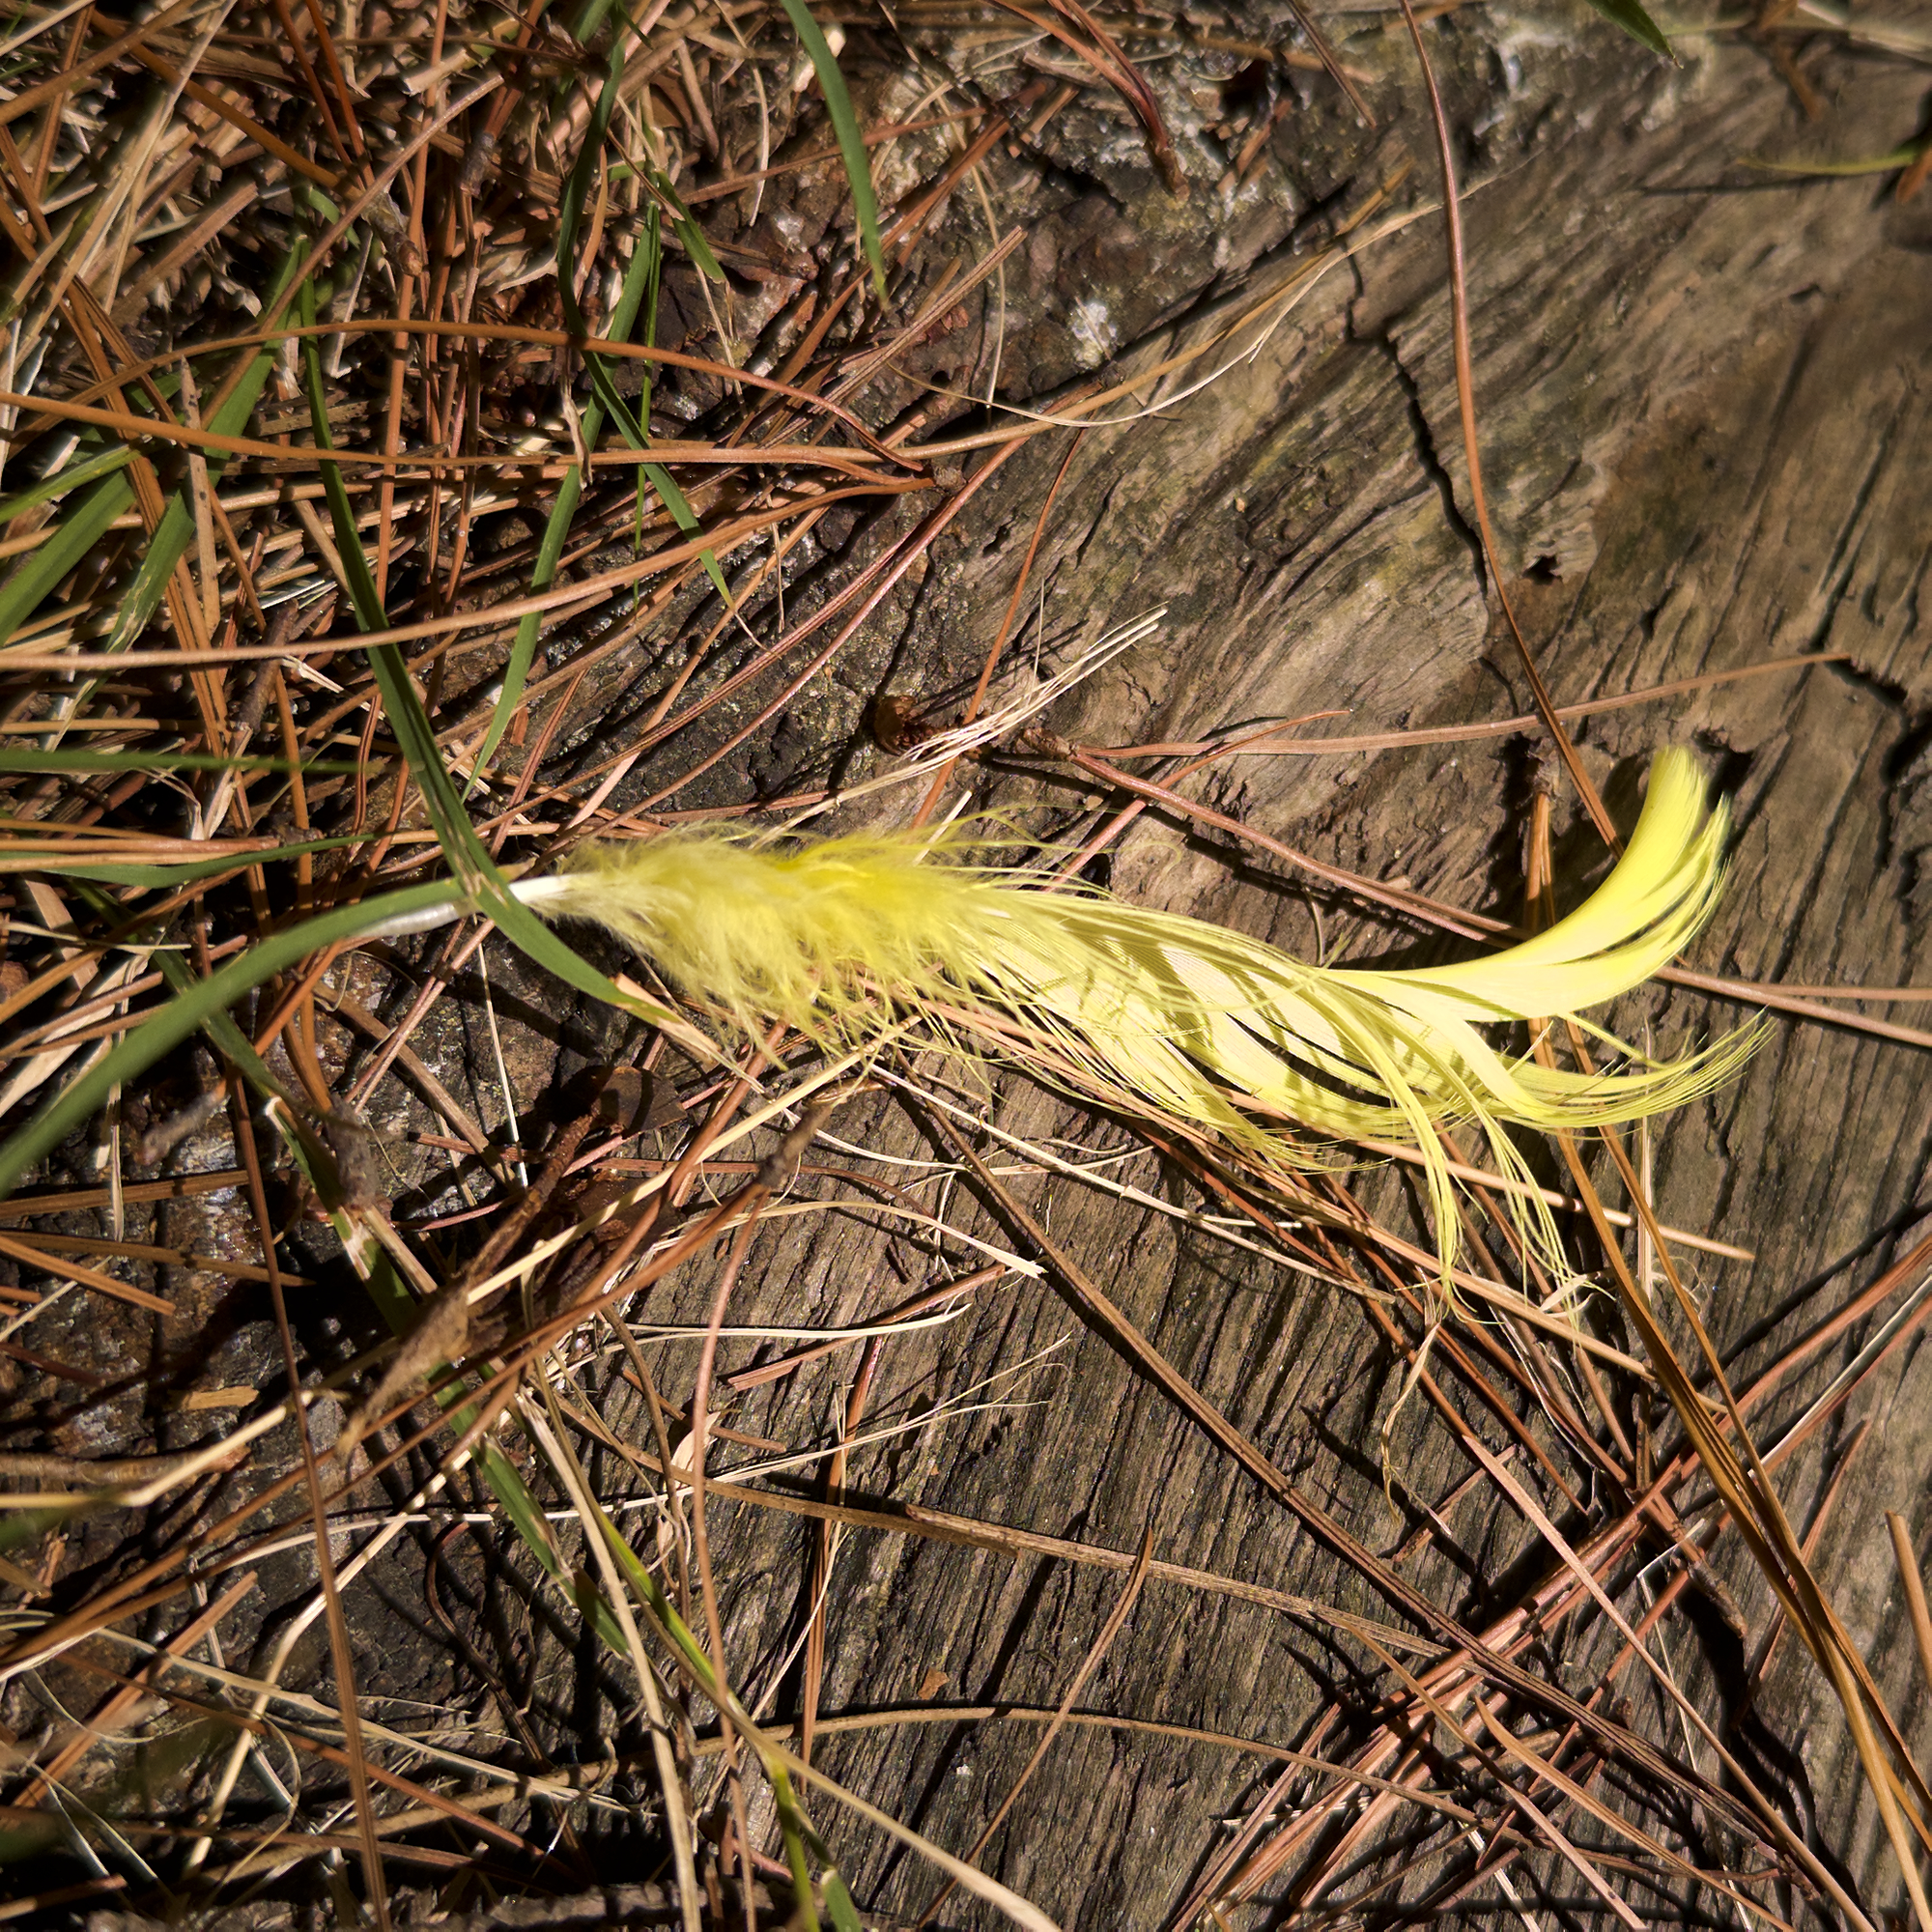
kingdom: Animalia
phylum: Chordata
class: Aves
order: Psittaciformes
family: Psittacidae
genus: Cacatua
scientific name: Cacatua galerita
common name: Sulphur-crested cockatoo
